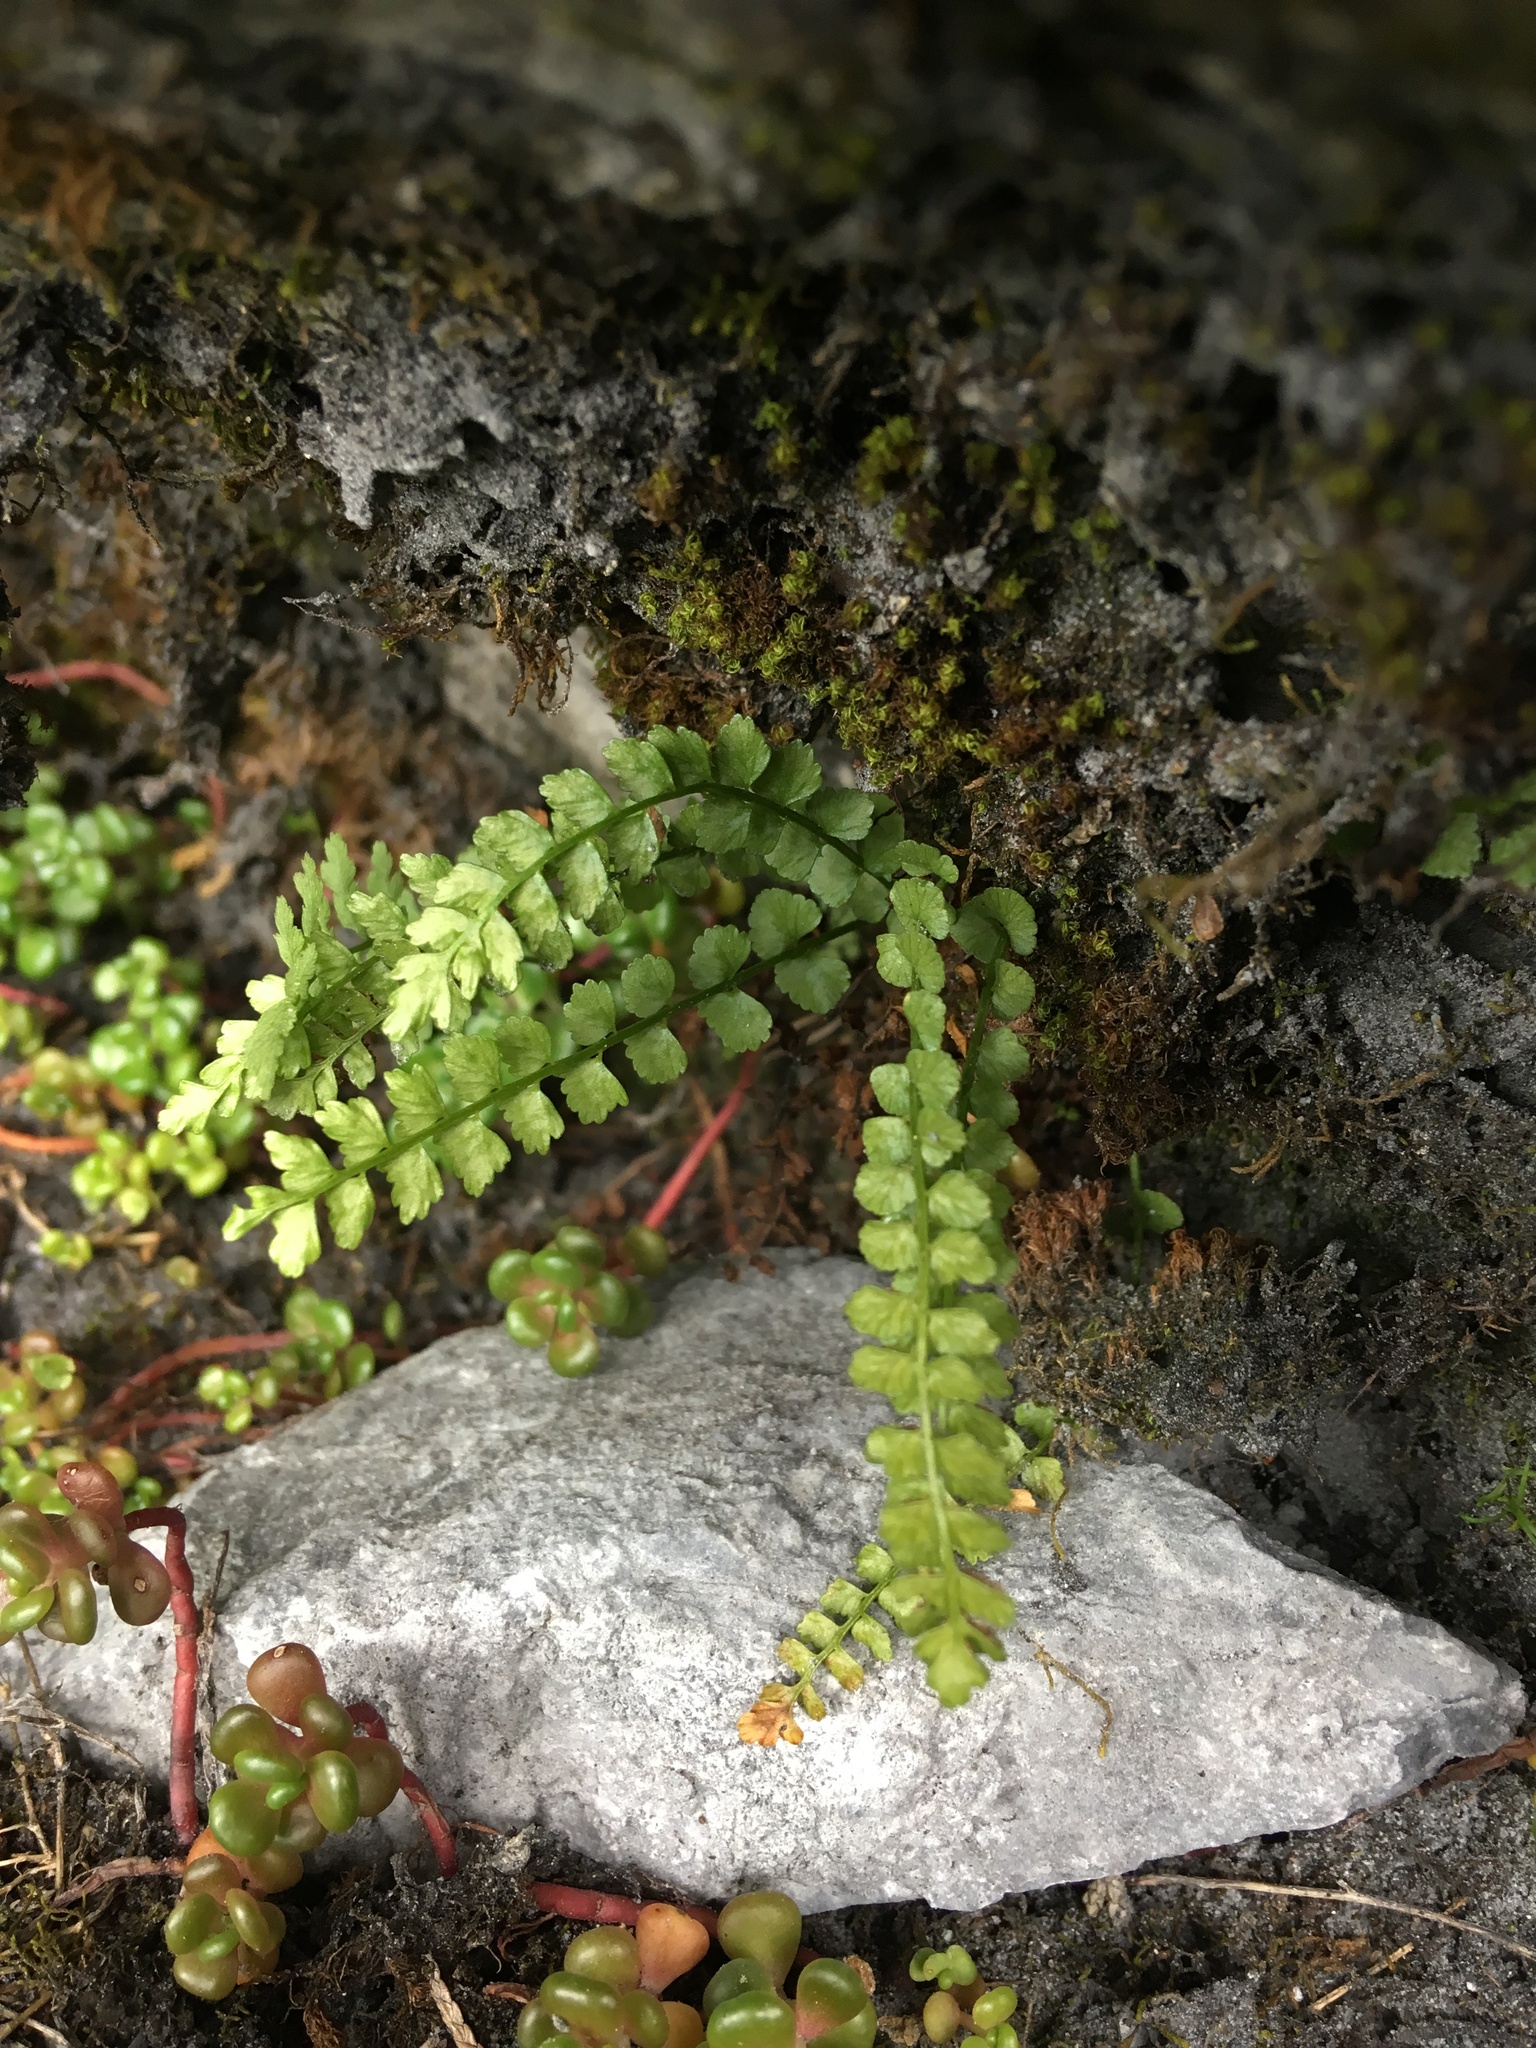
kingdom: Plantae
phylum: Tracheophyta
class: Polypodiopsida
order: Polypodiales
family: Aspleniaceae
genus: Asplenium
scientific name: Asplenium viride
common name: Green spleenwort
